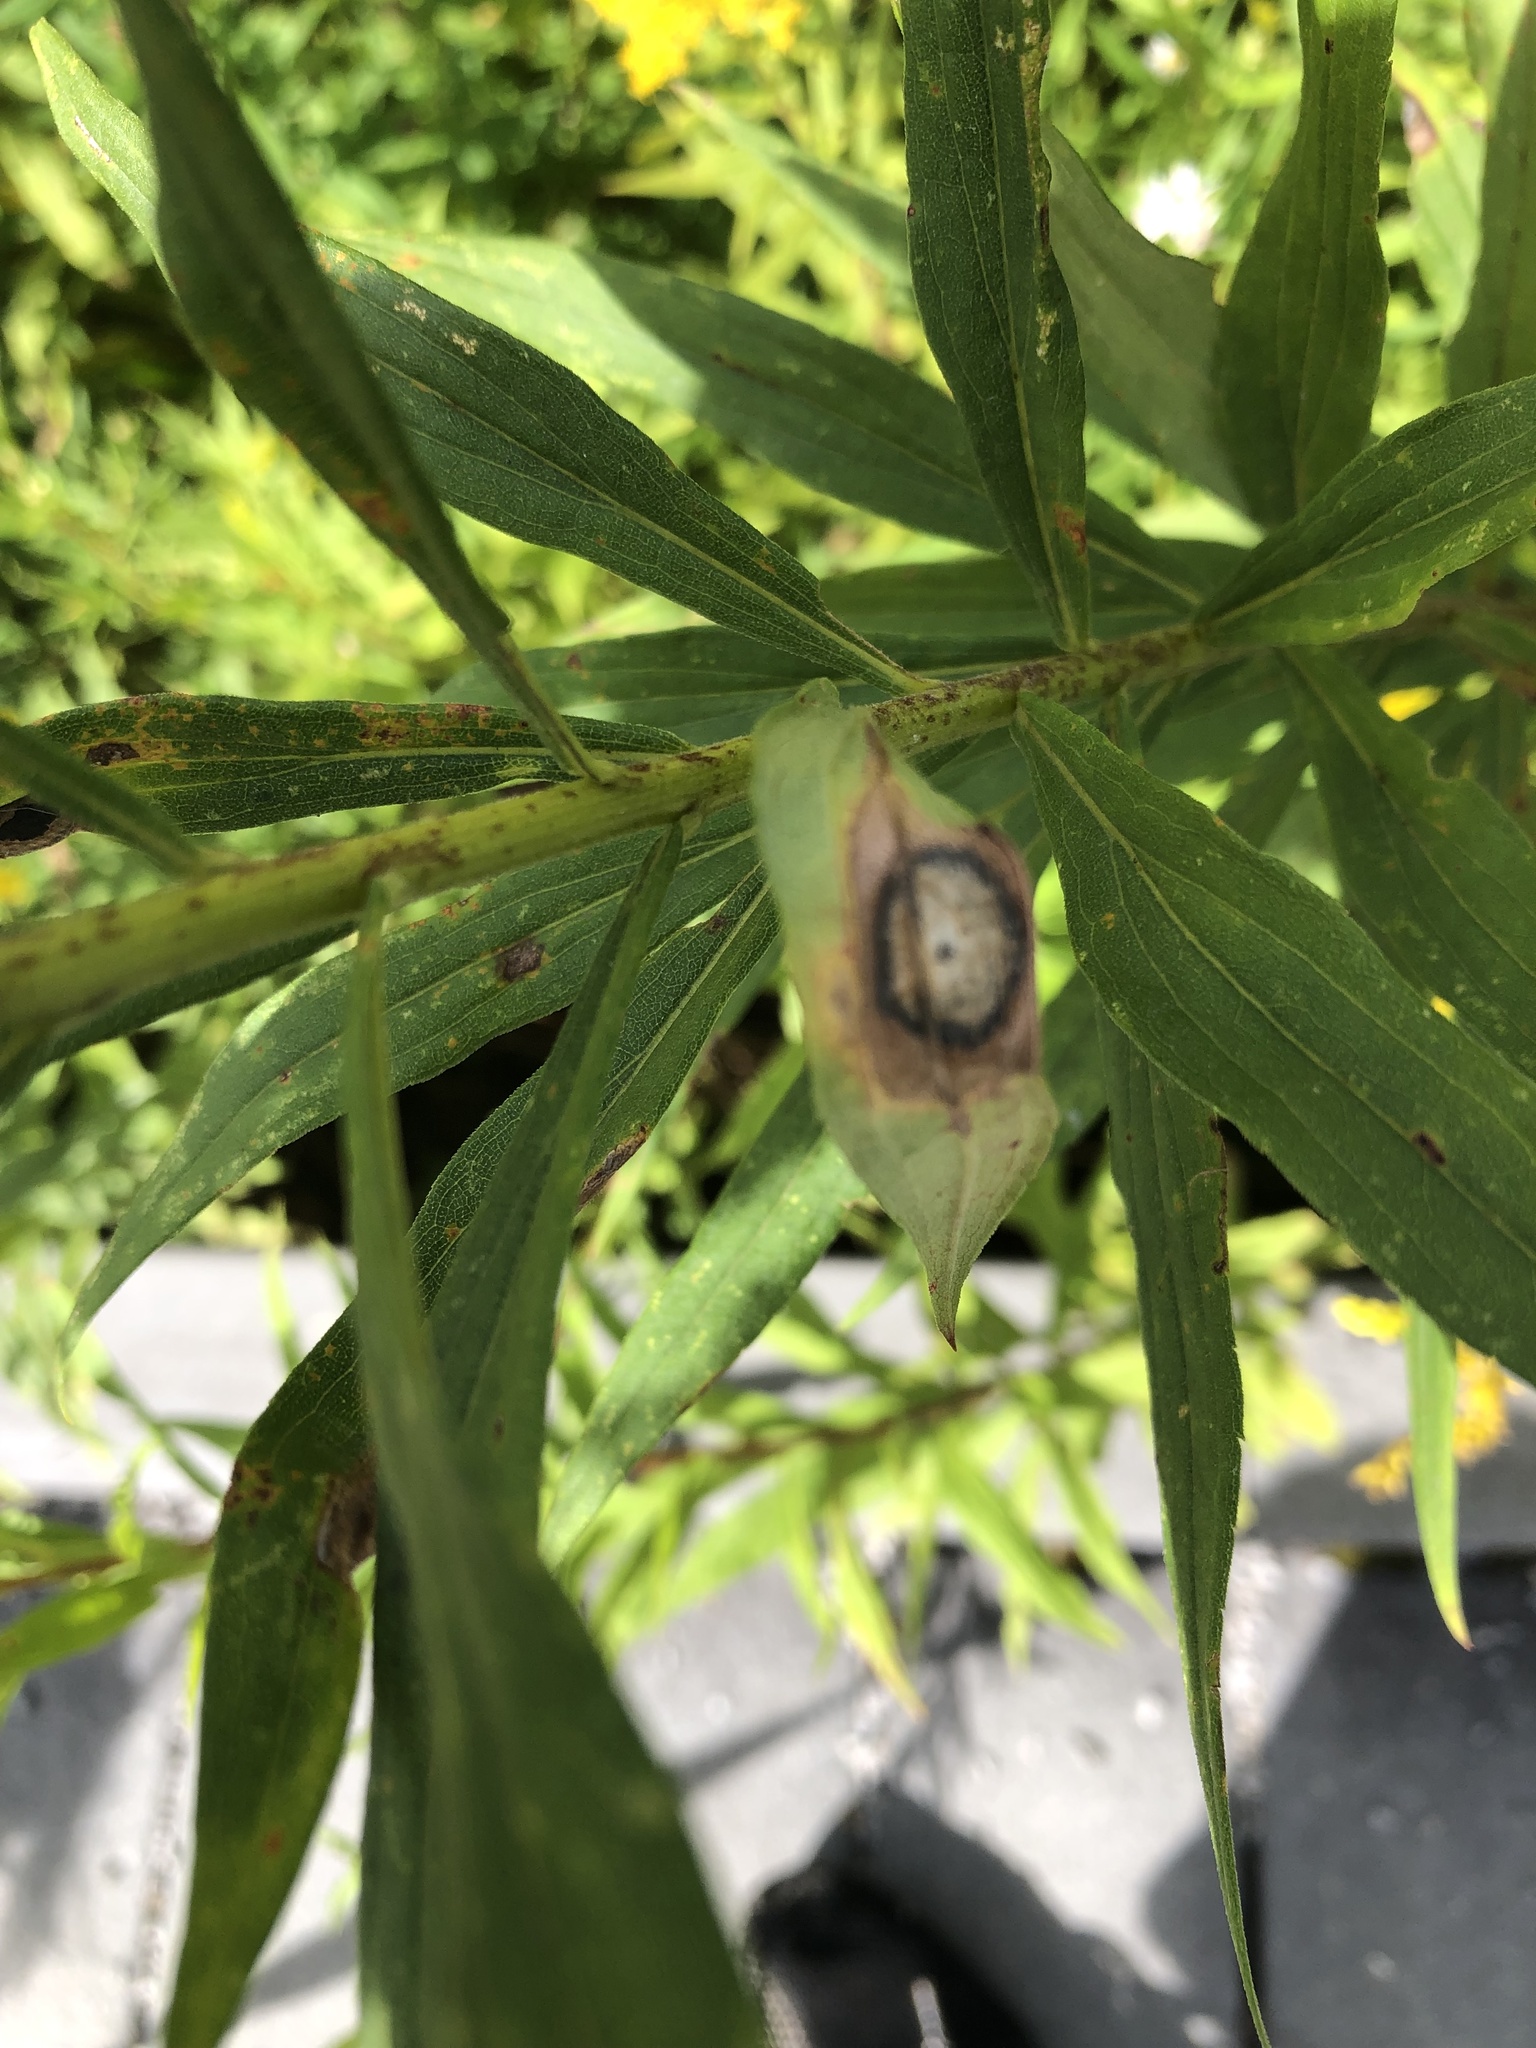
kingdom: Animalia
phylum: Arthropoda
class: Insecta
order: Diptera
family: Cecidomyiidae
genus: Asteromyia
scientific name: Asteromyia carbonifera
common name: Carbonifera goldenrod gall midge
